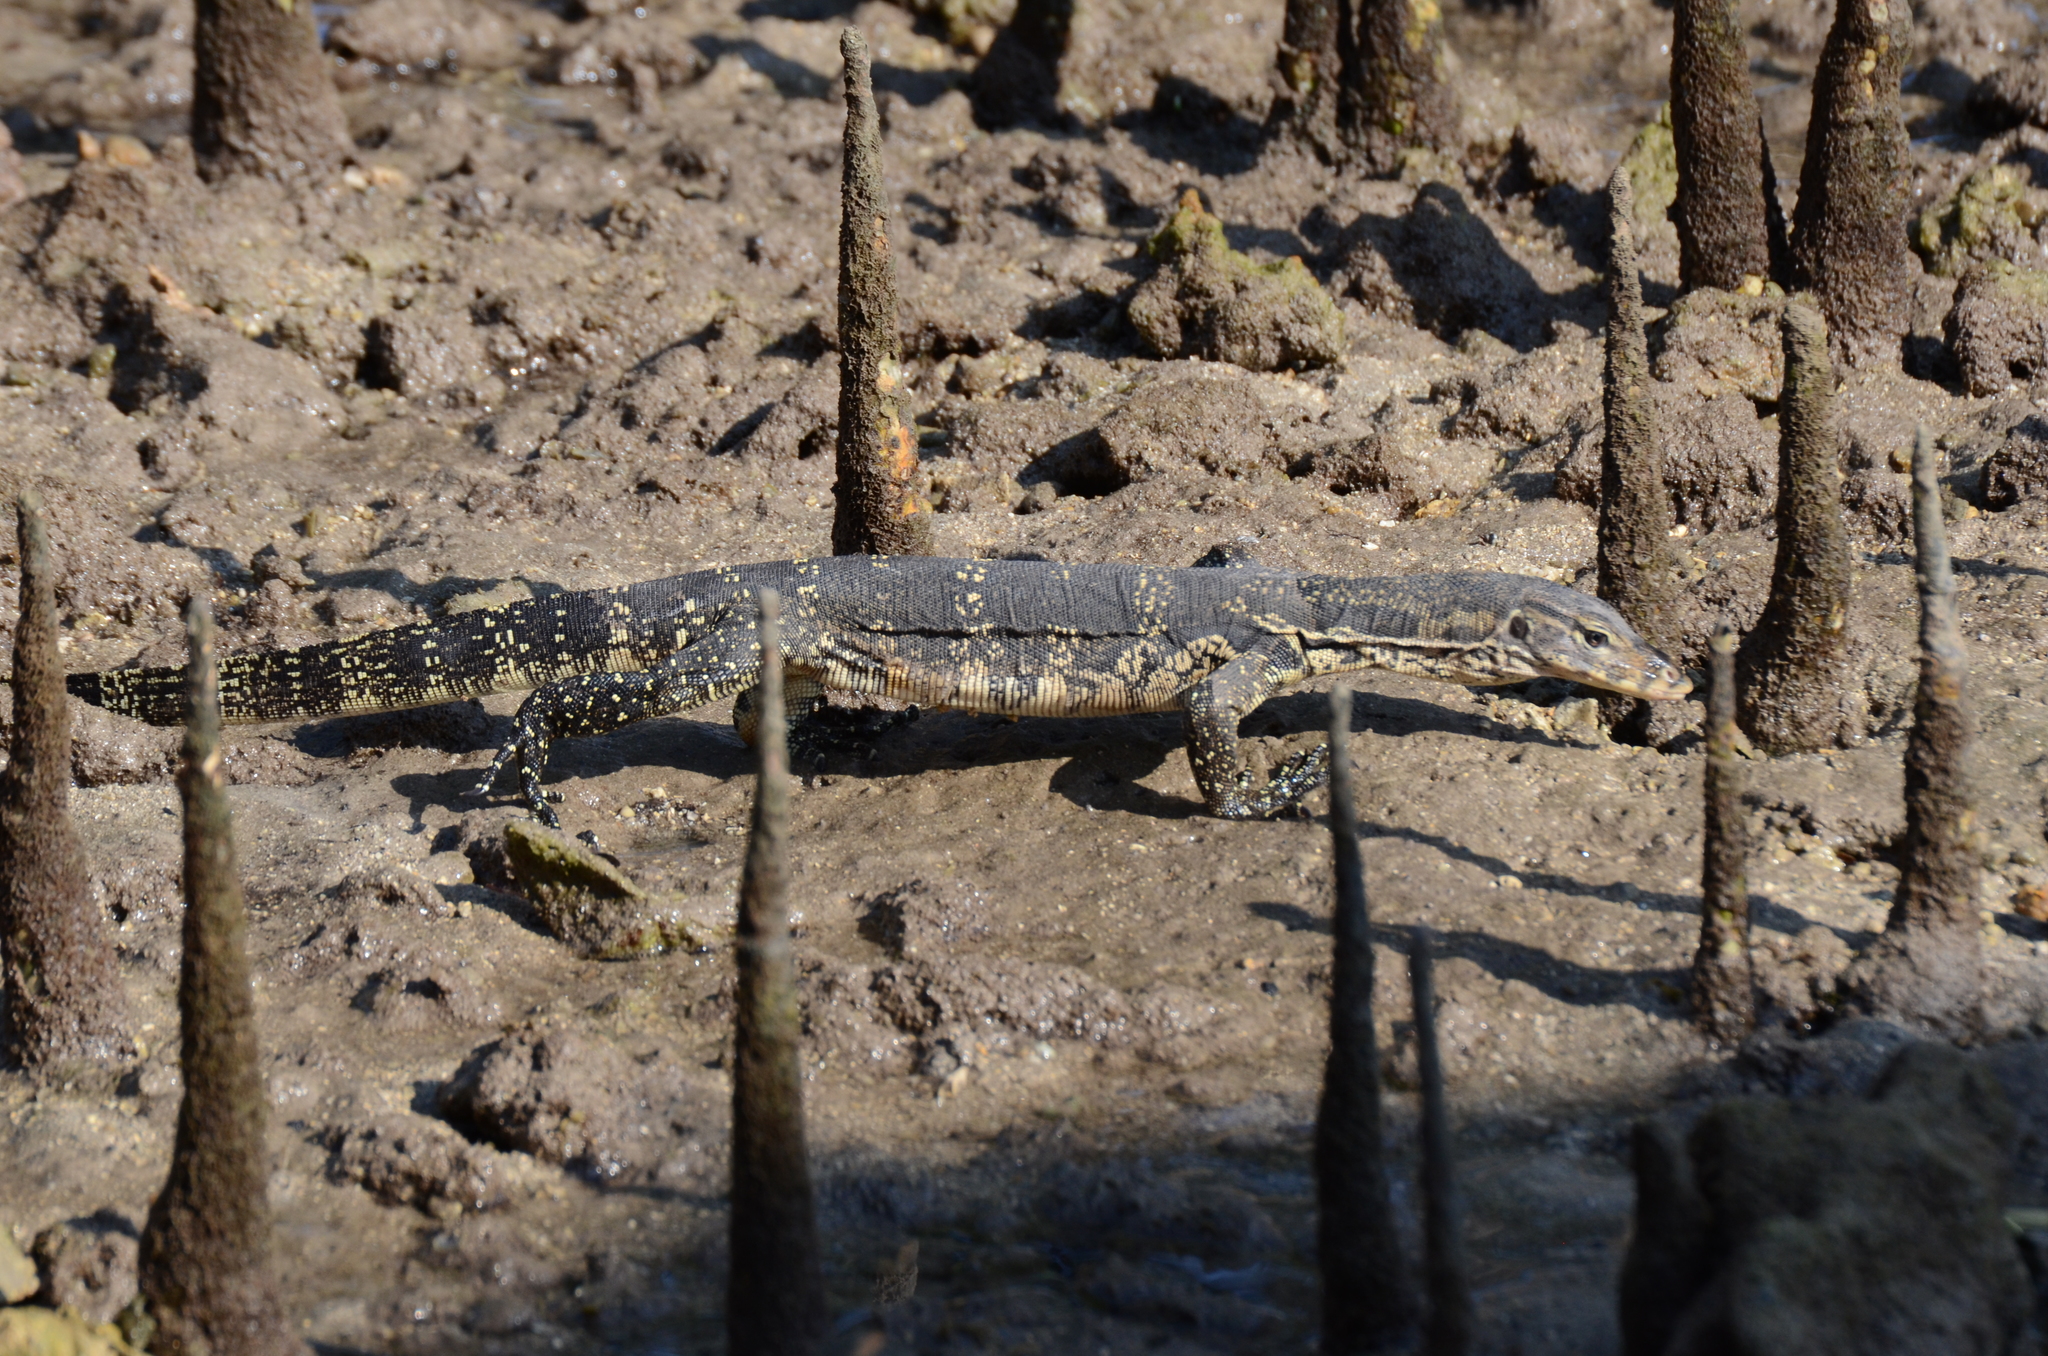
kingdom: Animalia
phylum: Chordata
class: Squamata
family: Varanidae
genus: Varanus
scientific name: Varanus salvator
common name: Common water monitor
